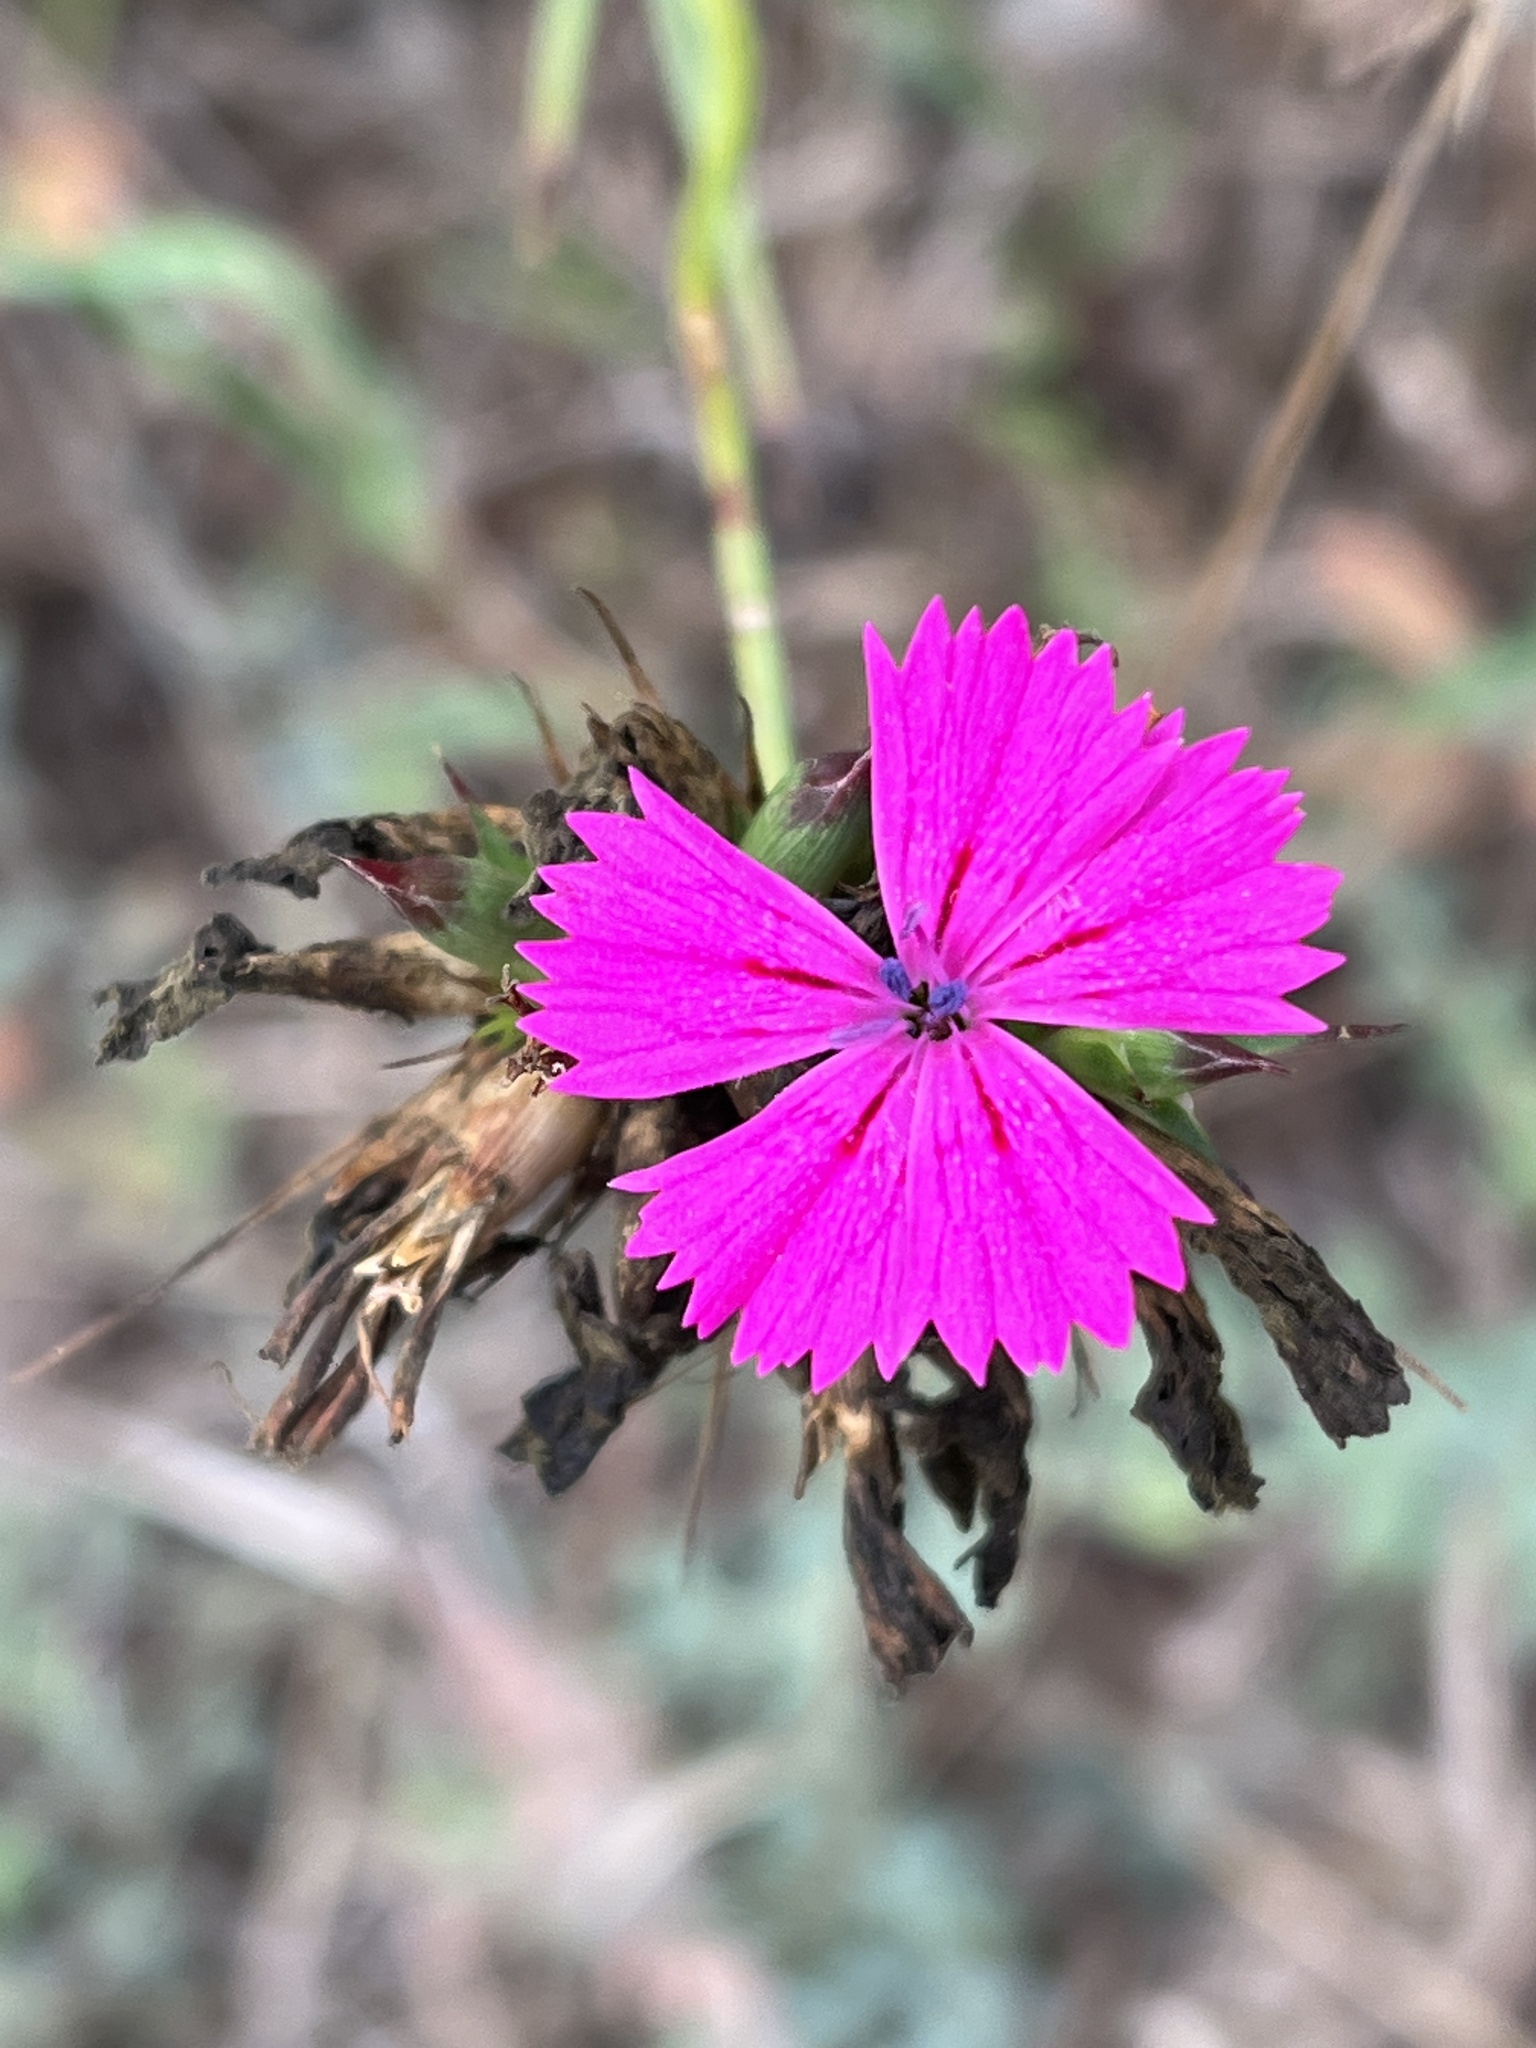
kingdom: Plantae
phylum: Tracheophyta
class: Magnoliopsida
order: Caryophyllales
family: Caryophyllaceae
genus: Dianthus
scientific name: Dianthus balbisii
